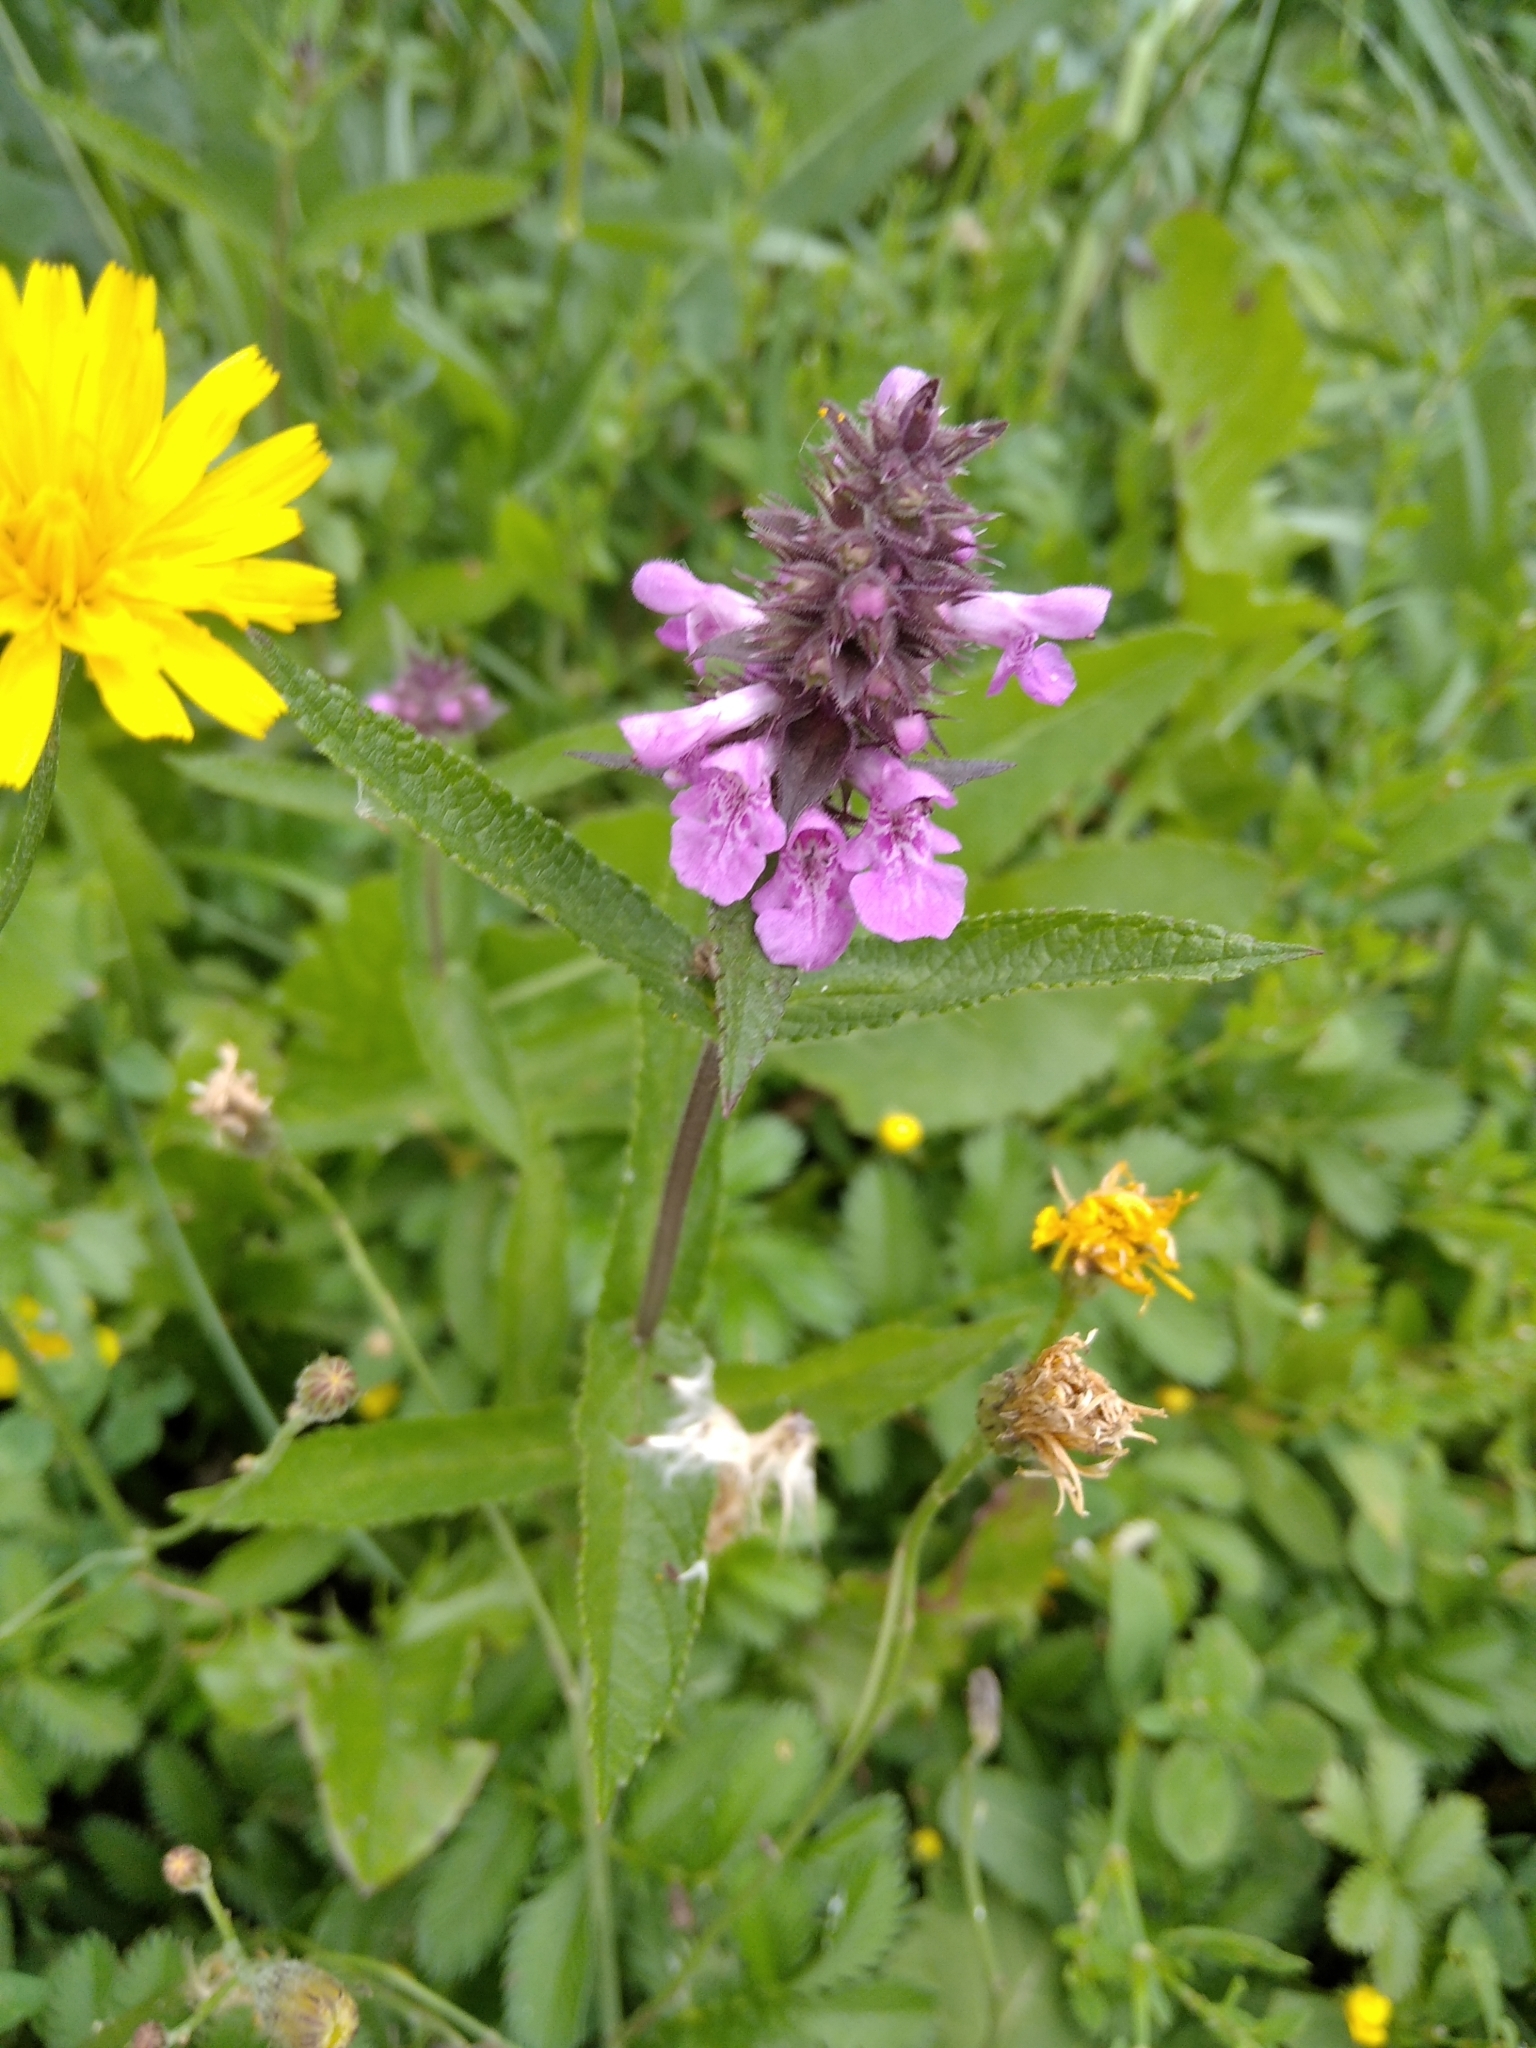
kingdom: Plantae
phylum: Tracheophyta
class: Magnoliopsida
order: Lamiales
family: Lamiaceae
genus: Stachys
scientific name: Stachys palustris
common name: Marsh woundwort
